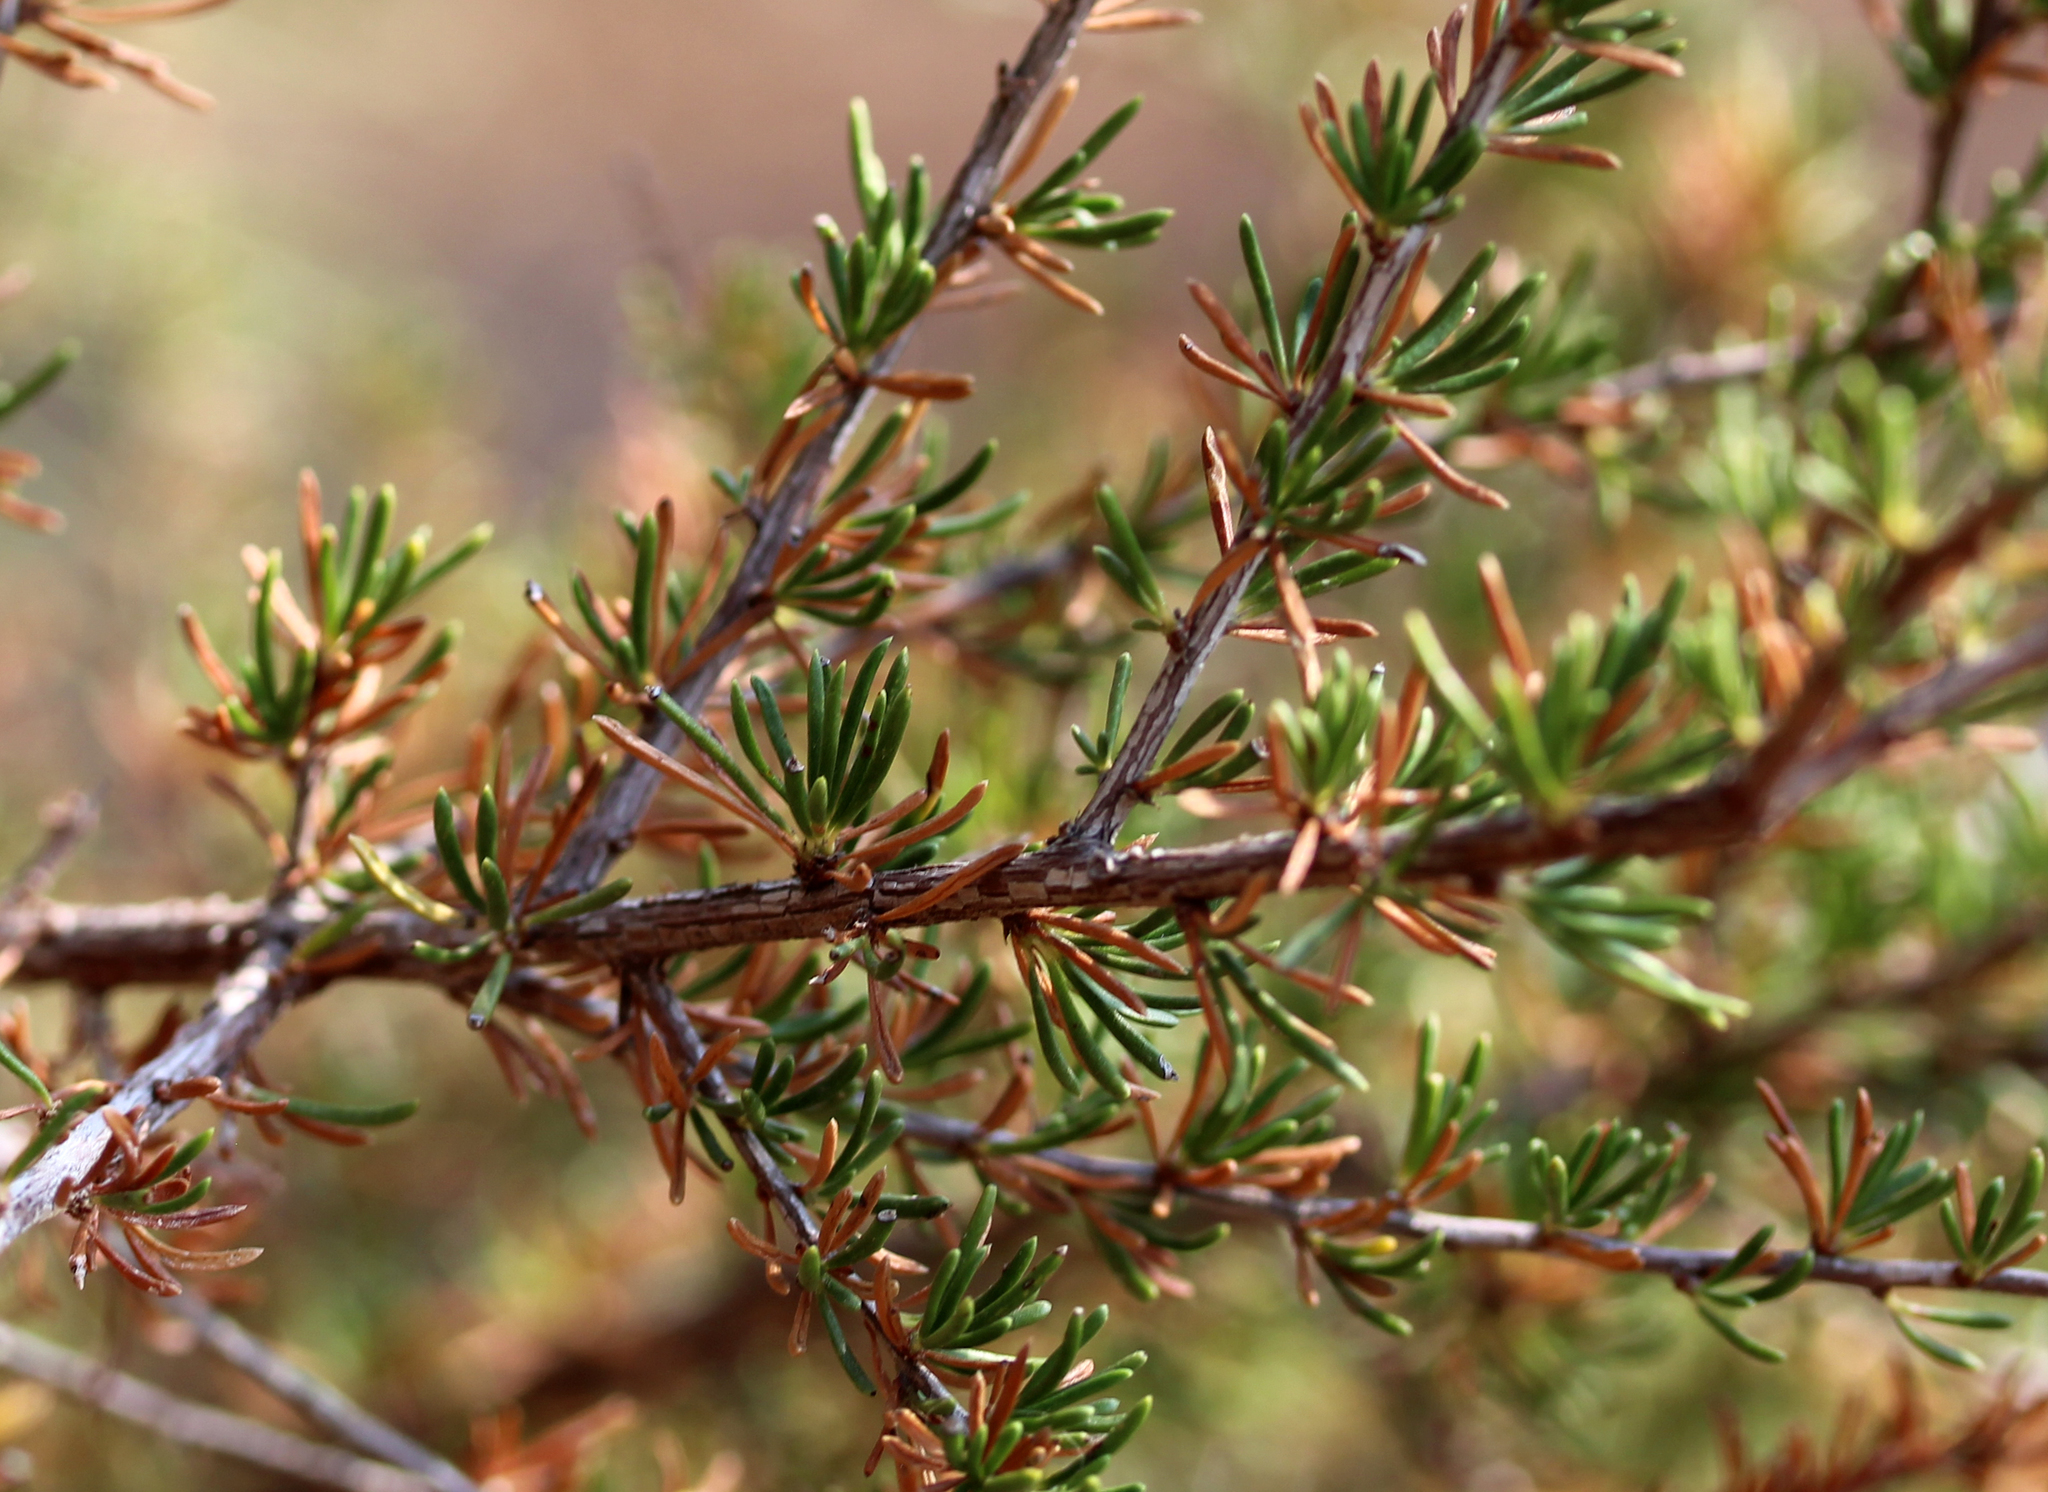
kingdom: Plantae
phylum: Tracheophyta
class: Magnoliopsida
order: Rosales
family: Rosaceae
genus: Adenostoma
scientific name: Adenostoma fasciculatum
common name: Chamise
